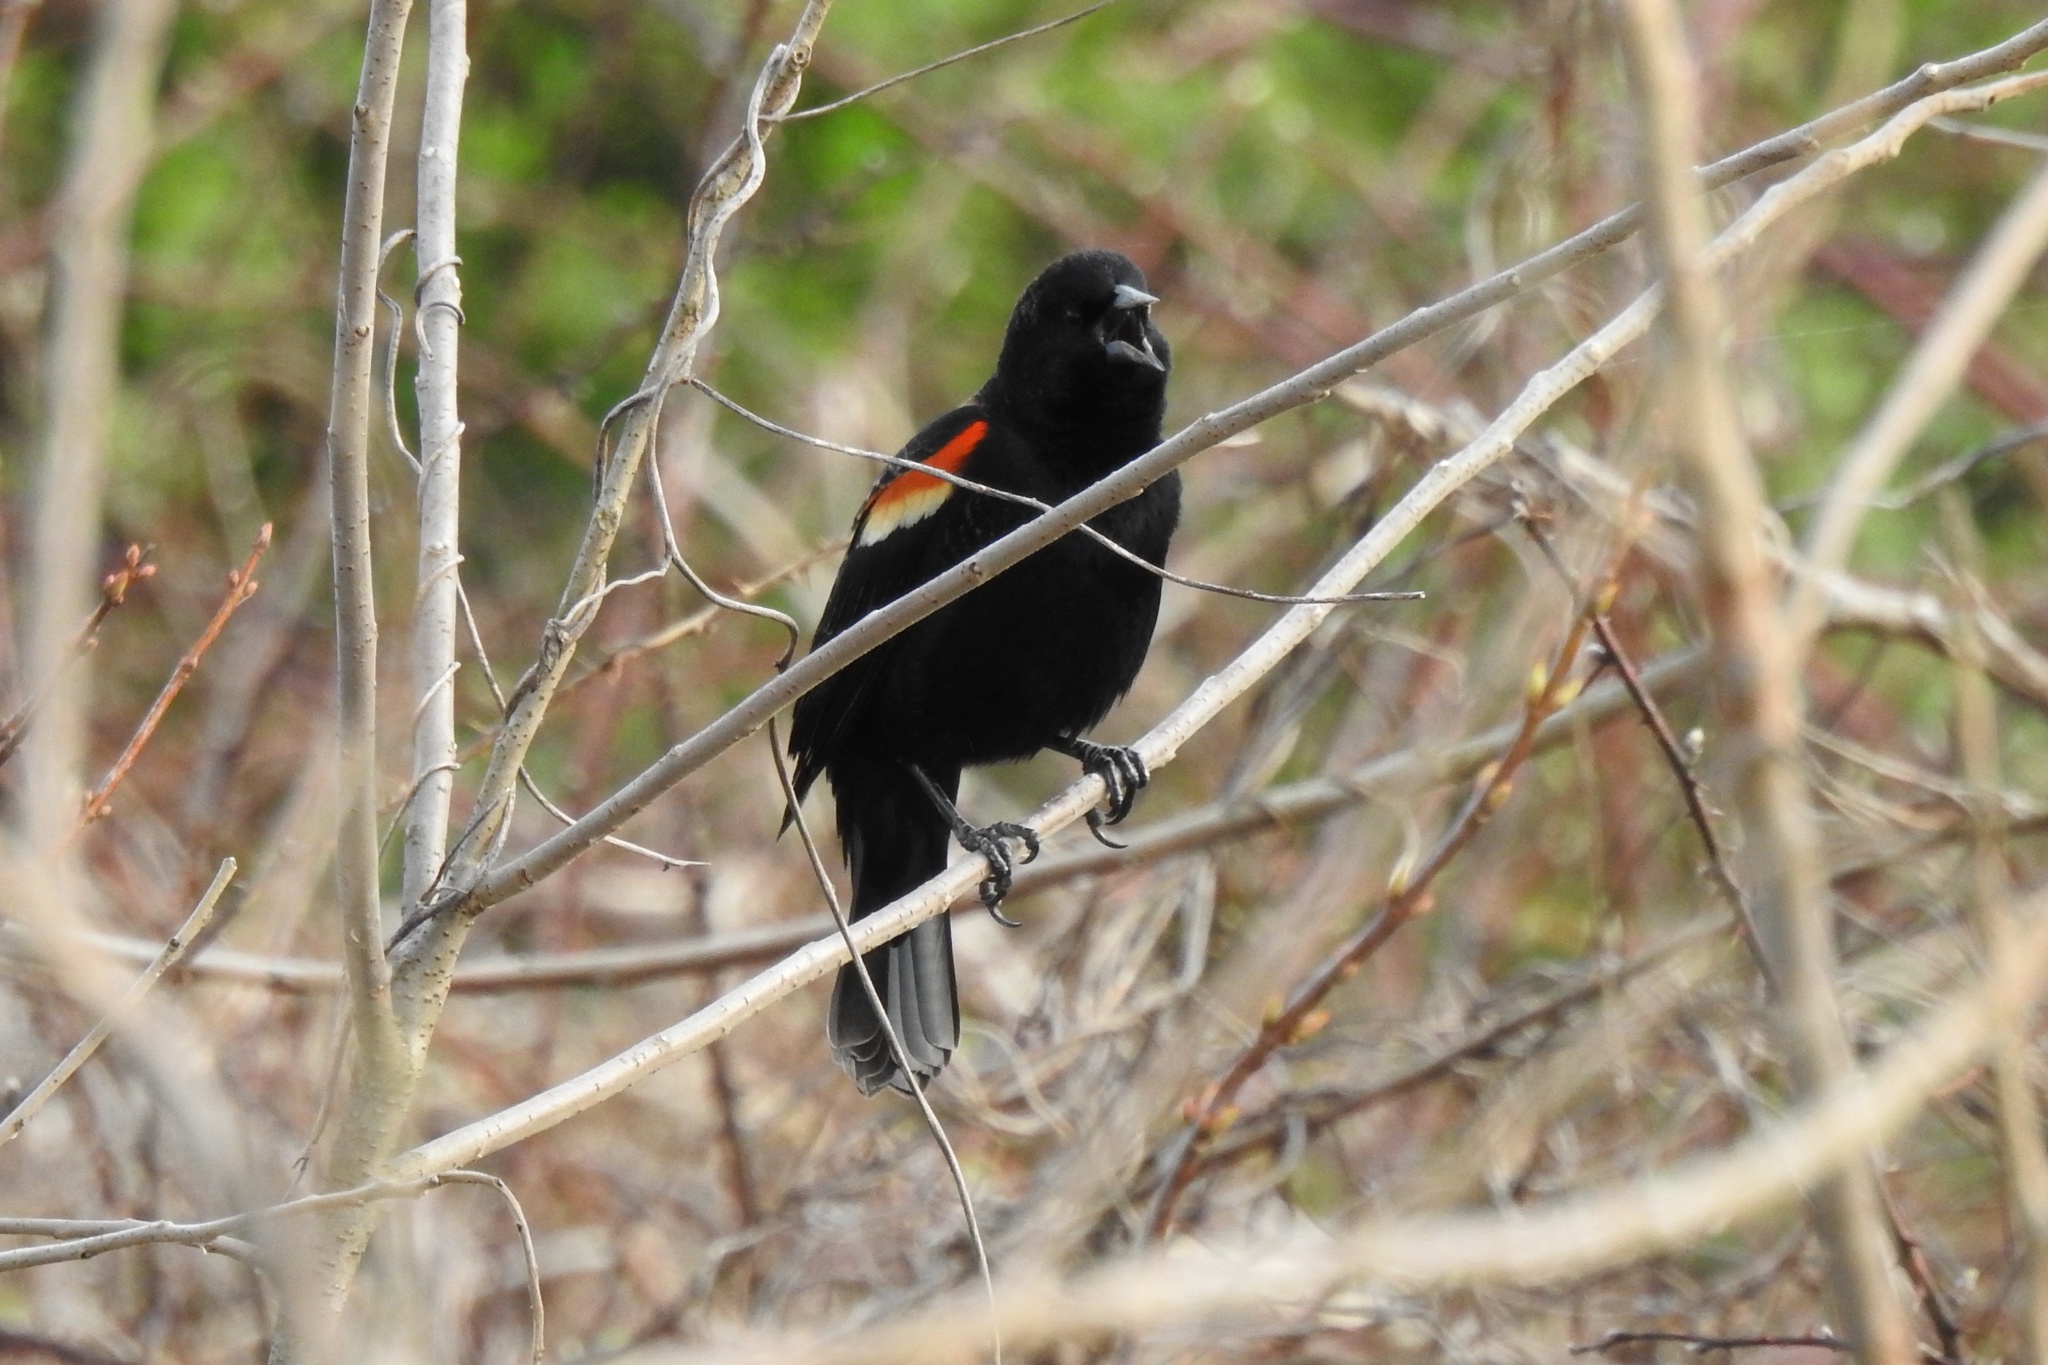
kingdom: Animalia
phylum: Chordata
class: Aves
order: Passeriformes
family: Icteridae
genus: Agelaius
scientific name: Agelaius phoeniceus
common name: Red-winged blackbird
